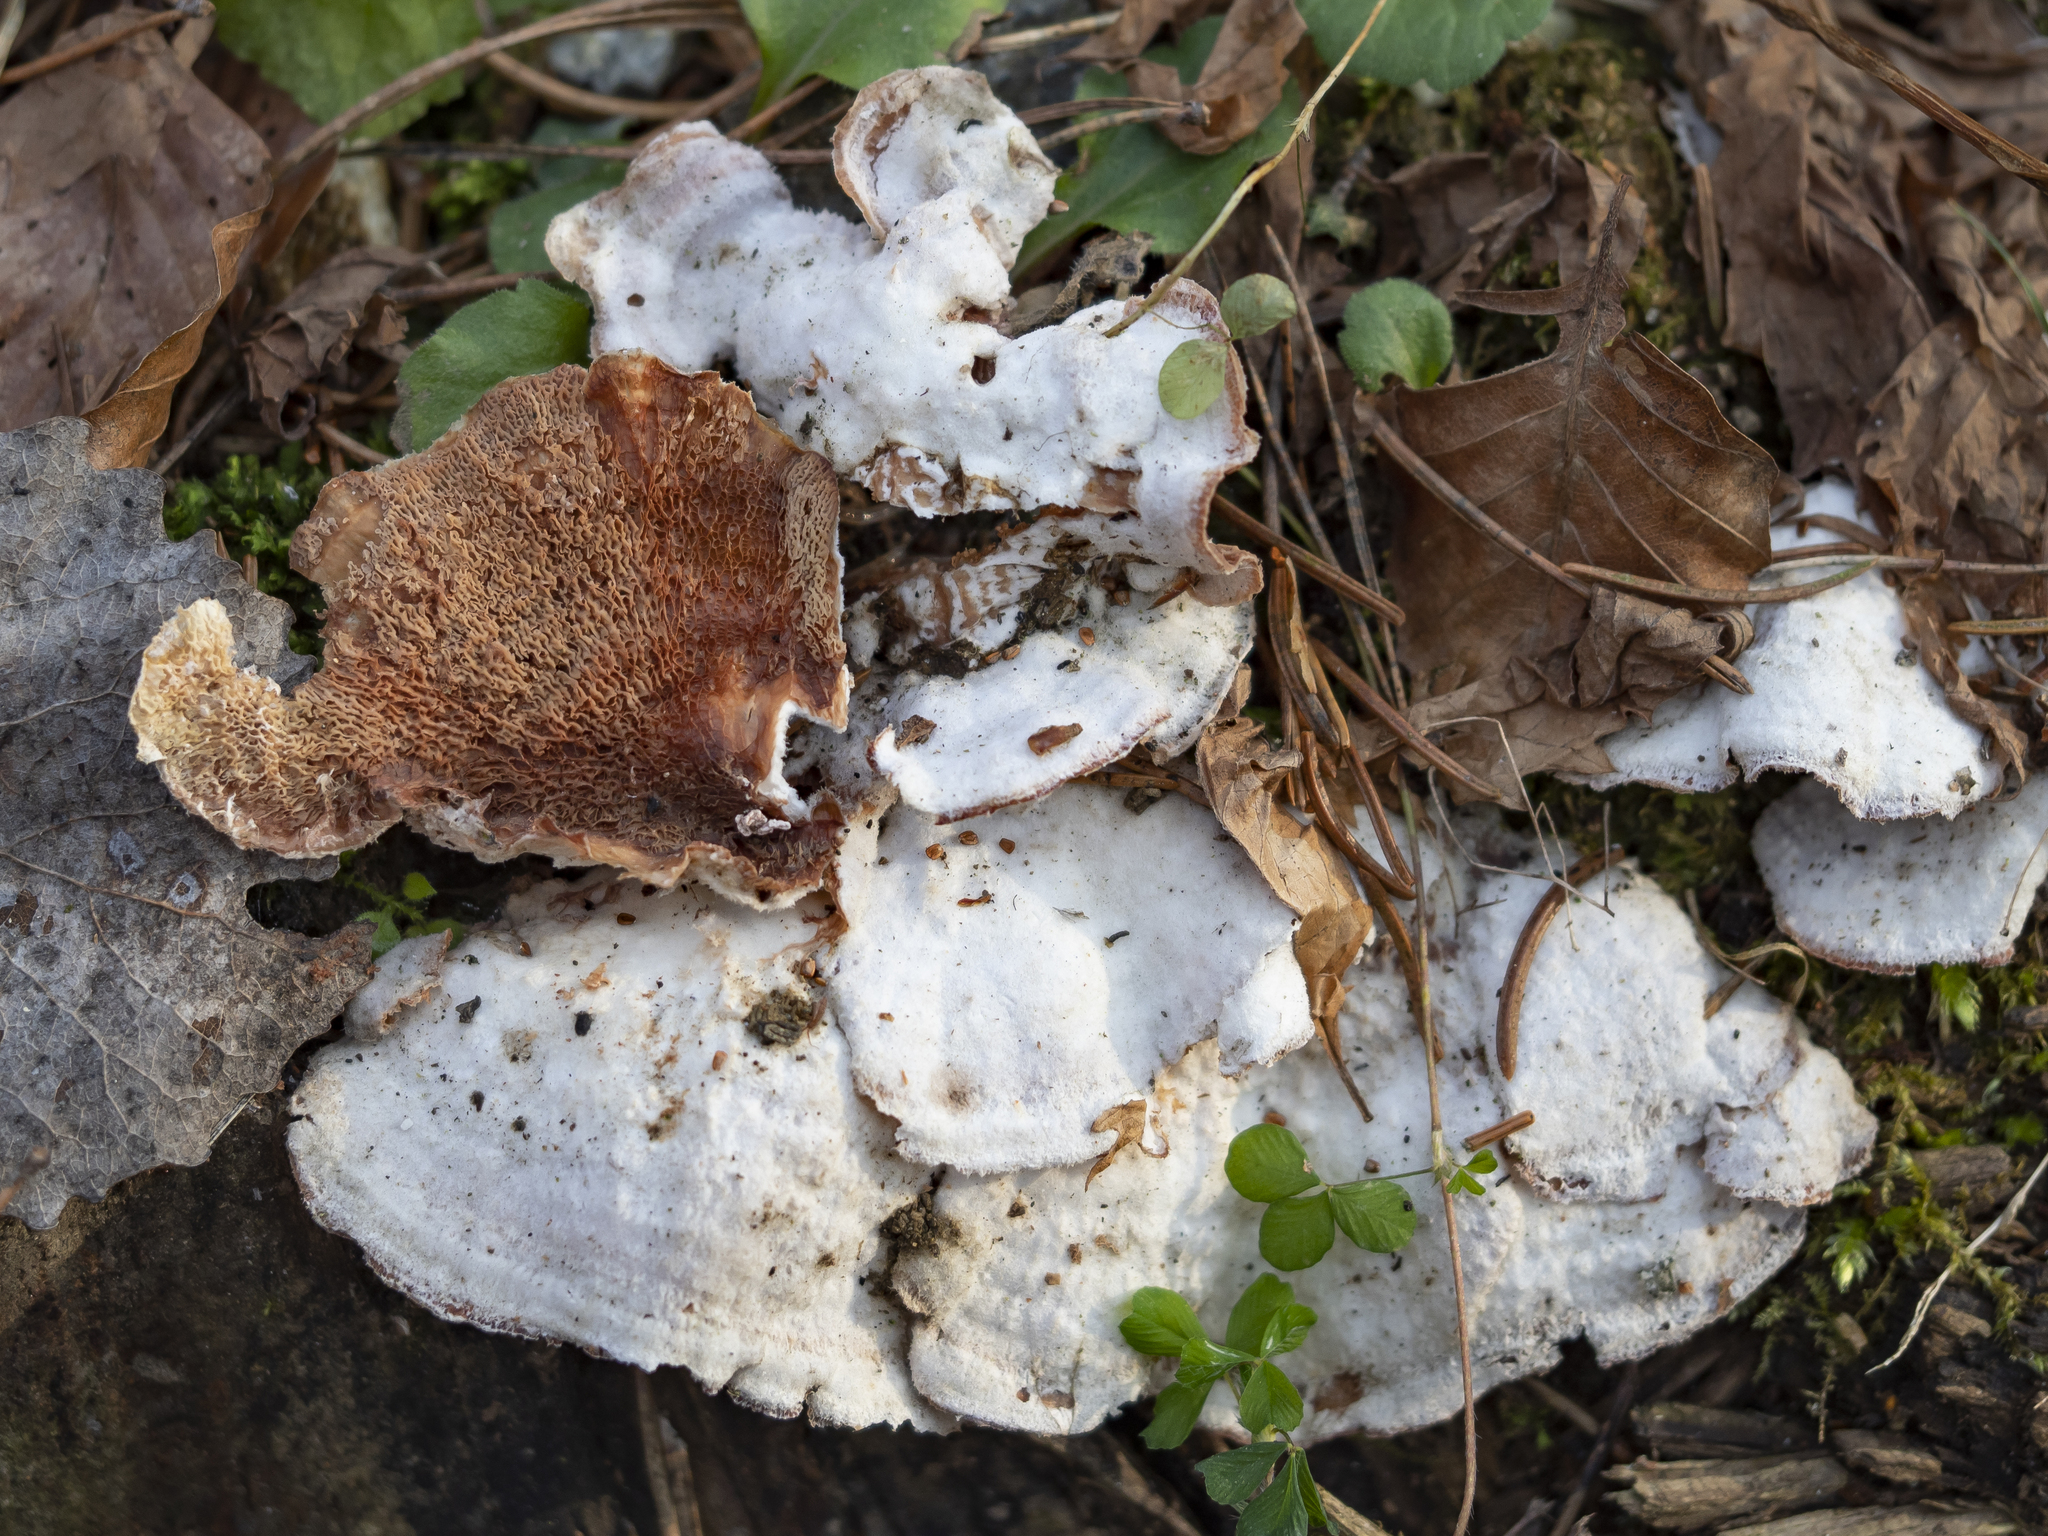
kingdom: Fungi
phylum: Basidiomycota
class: Agaricomycetes
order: Polyporales
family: Meruliaceae
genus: Phlebia
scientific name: Phlebia tremellosa
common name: Jelly rot
